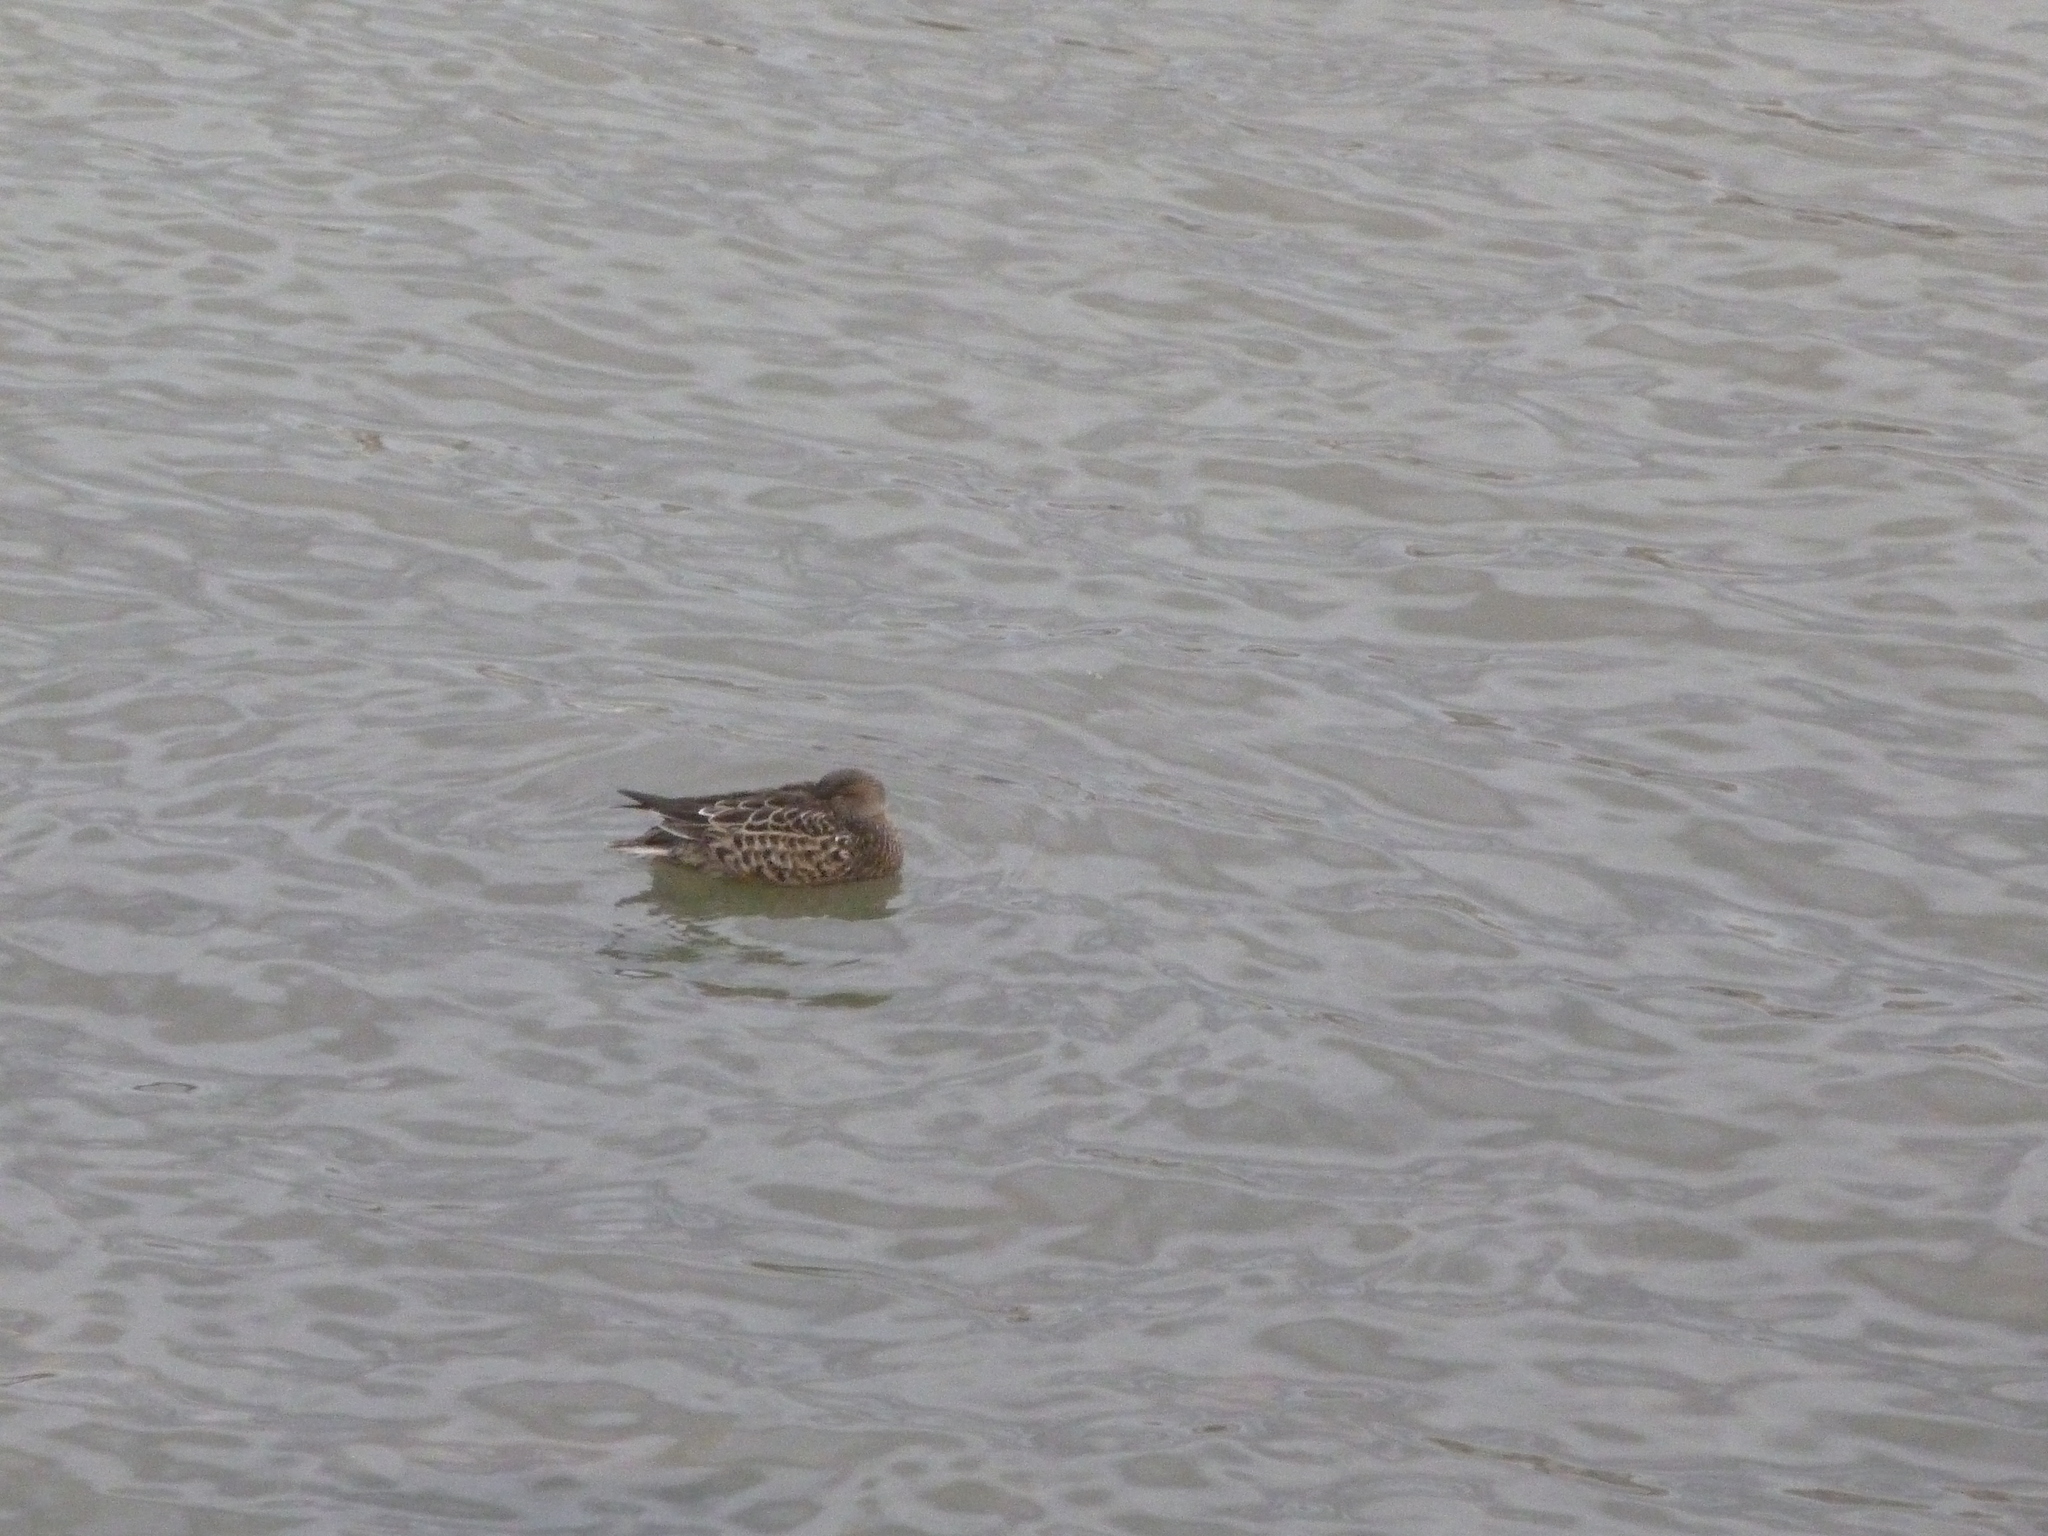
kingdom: Animalia
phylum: Chordata
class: Aves
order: Anseriformes
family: Anatidae
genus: Spatula
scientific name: Spatula clypeata
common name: Northern shoveler
